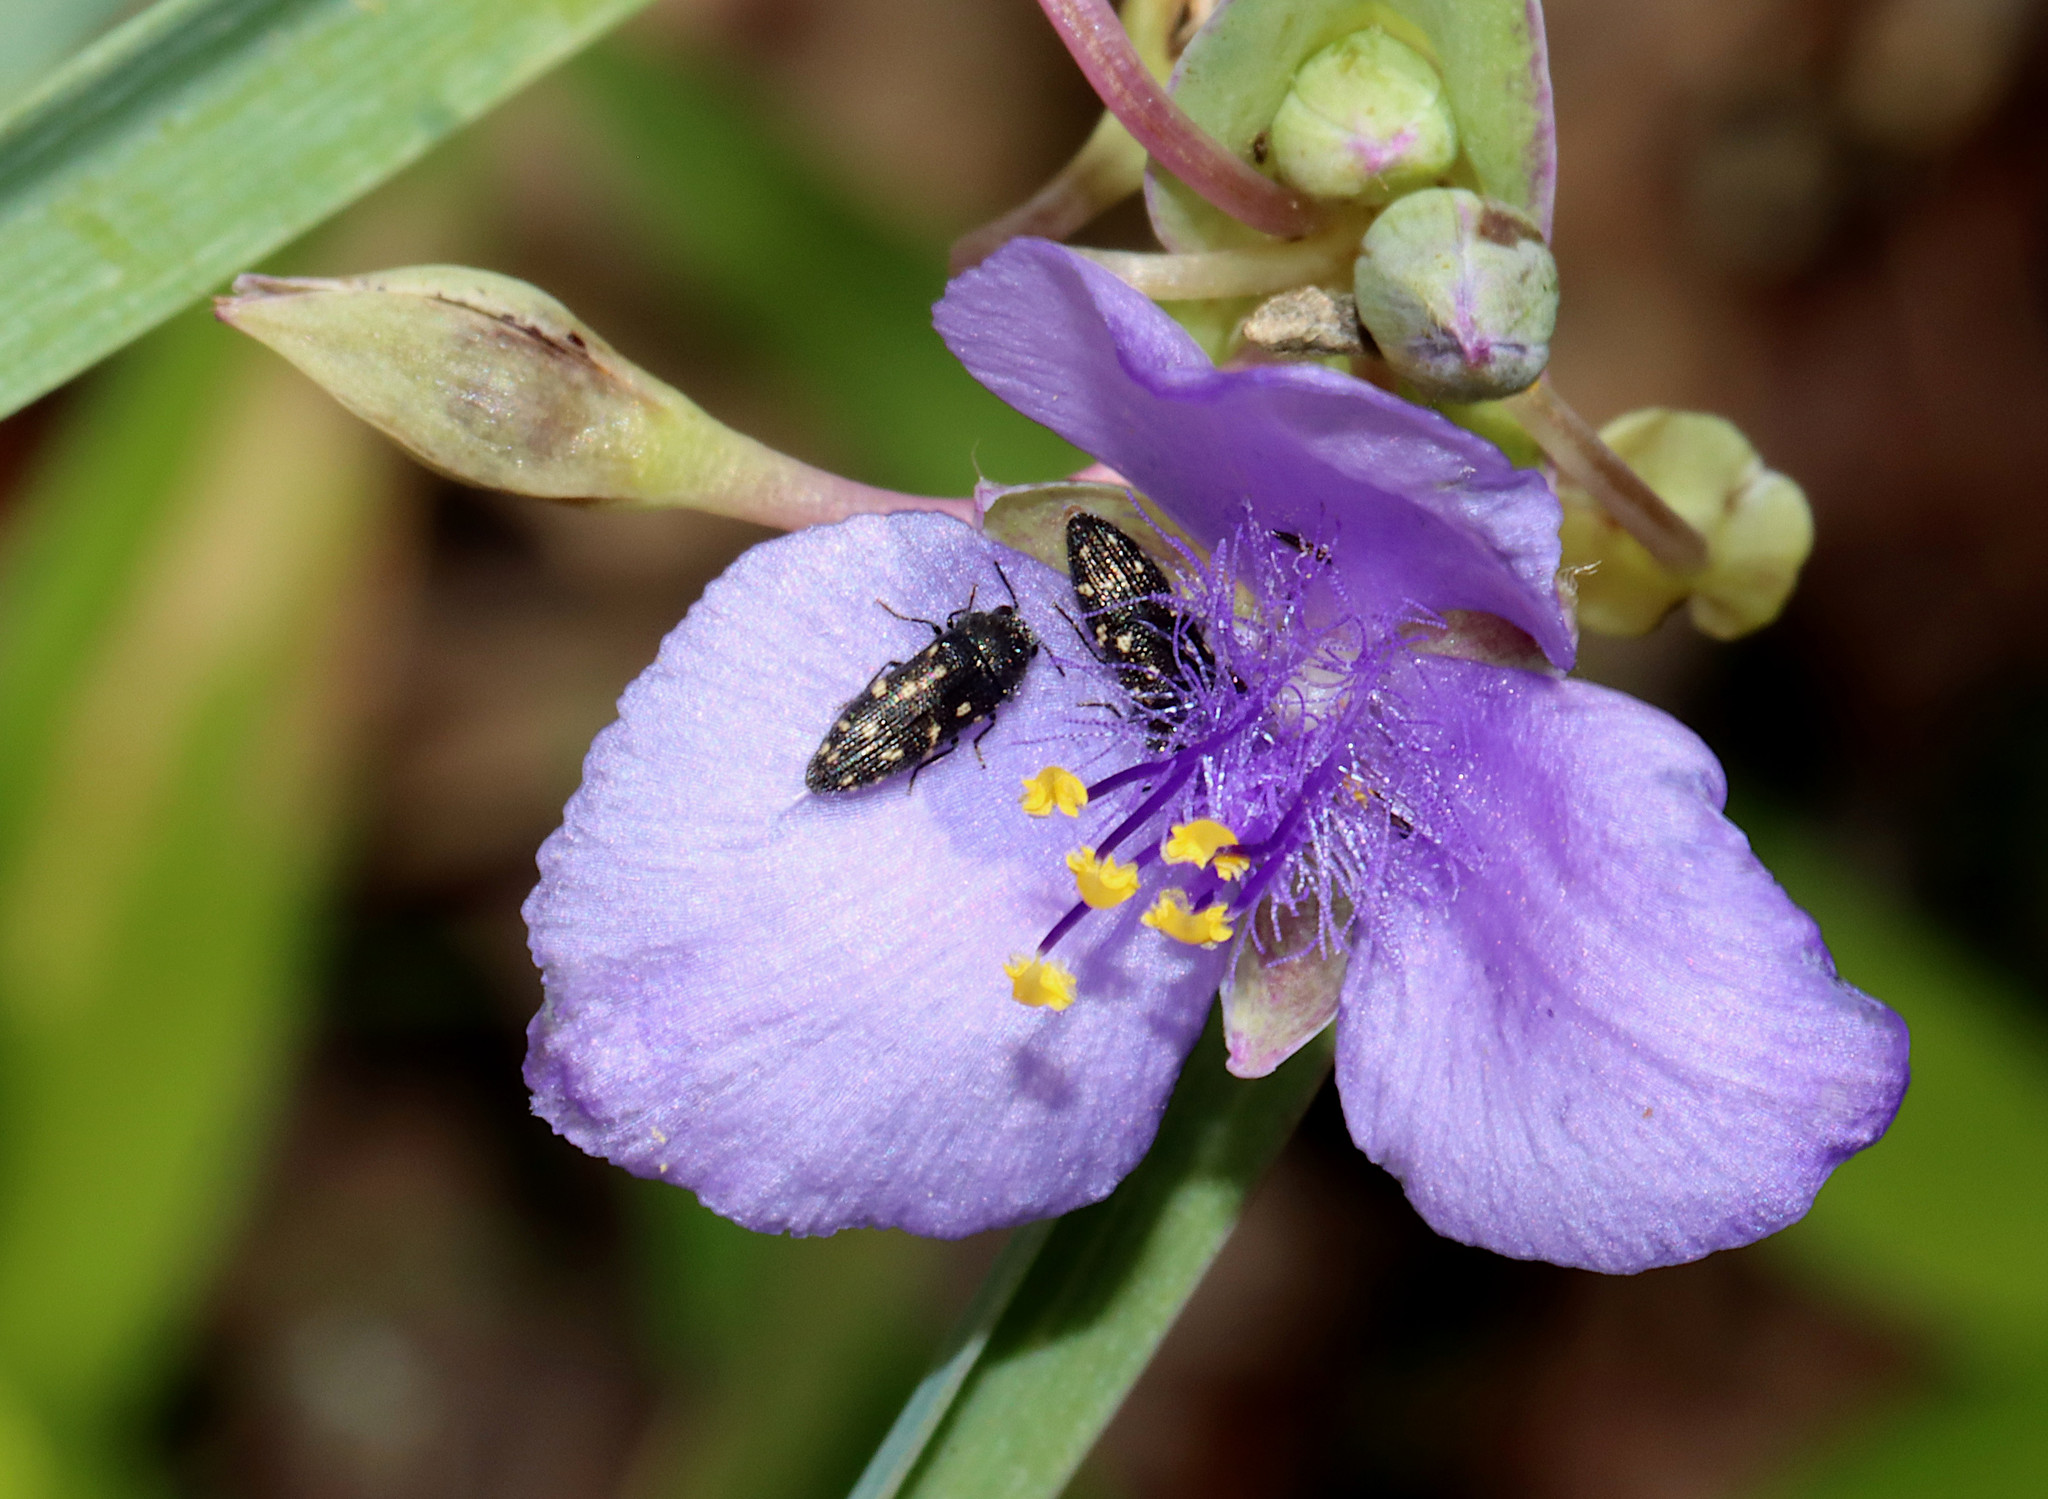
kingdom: Animalia
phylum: Arthropoda
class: Insecta
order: Coleoptera
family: Buprestidae
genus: Acmaeodera
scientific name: Acmaeodera tubulus
